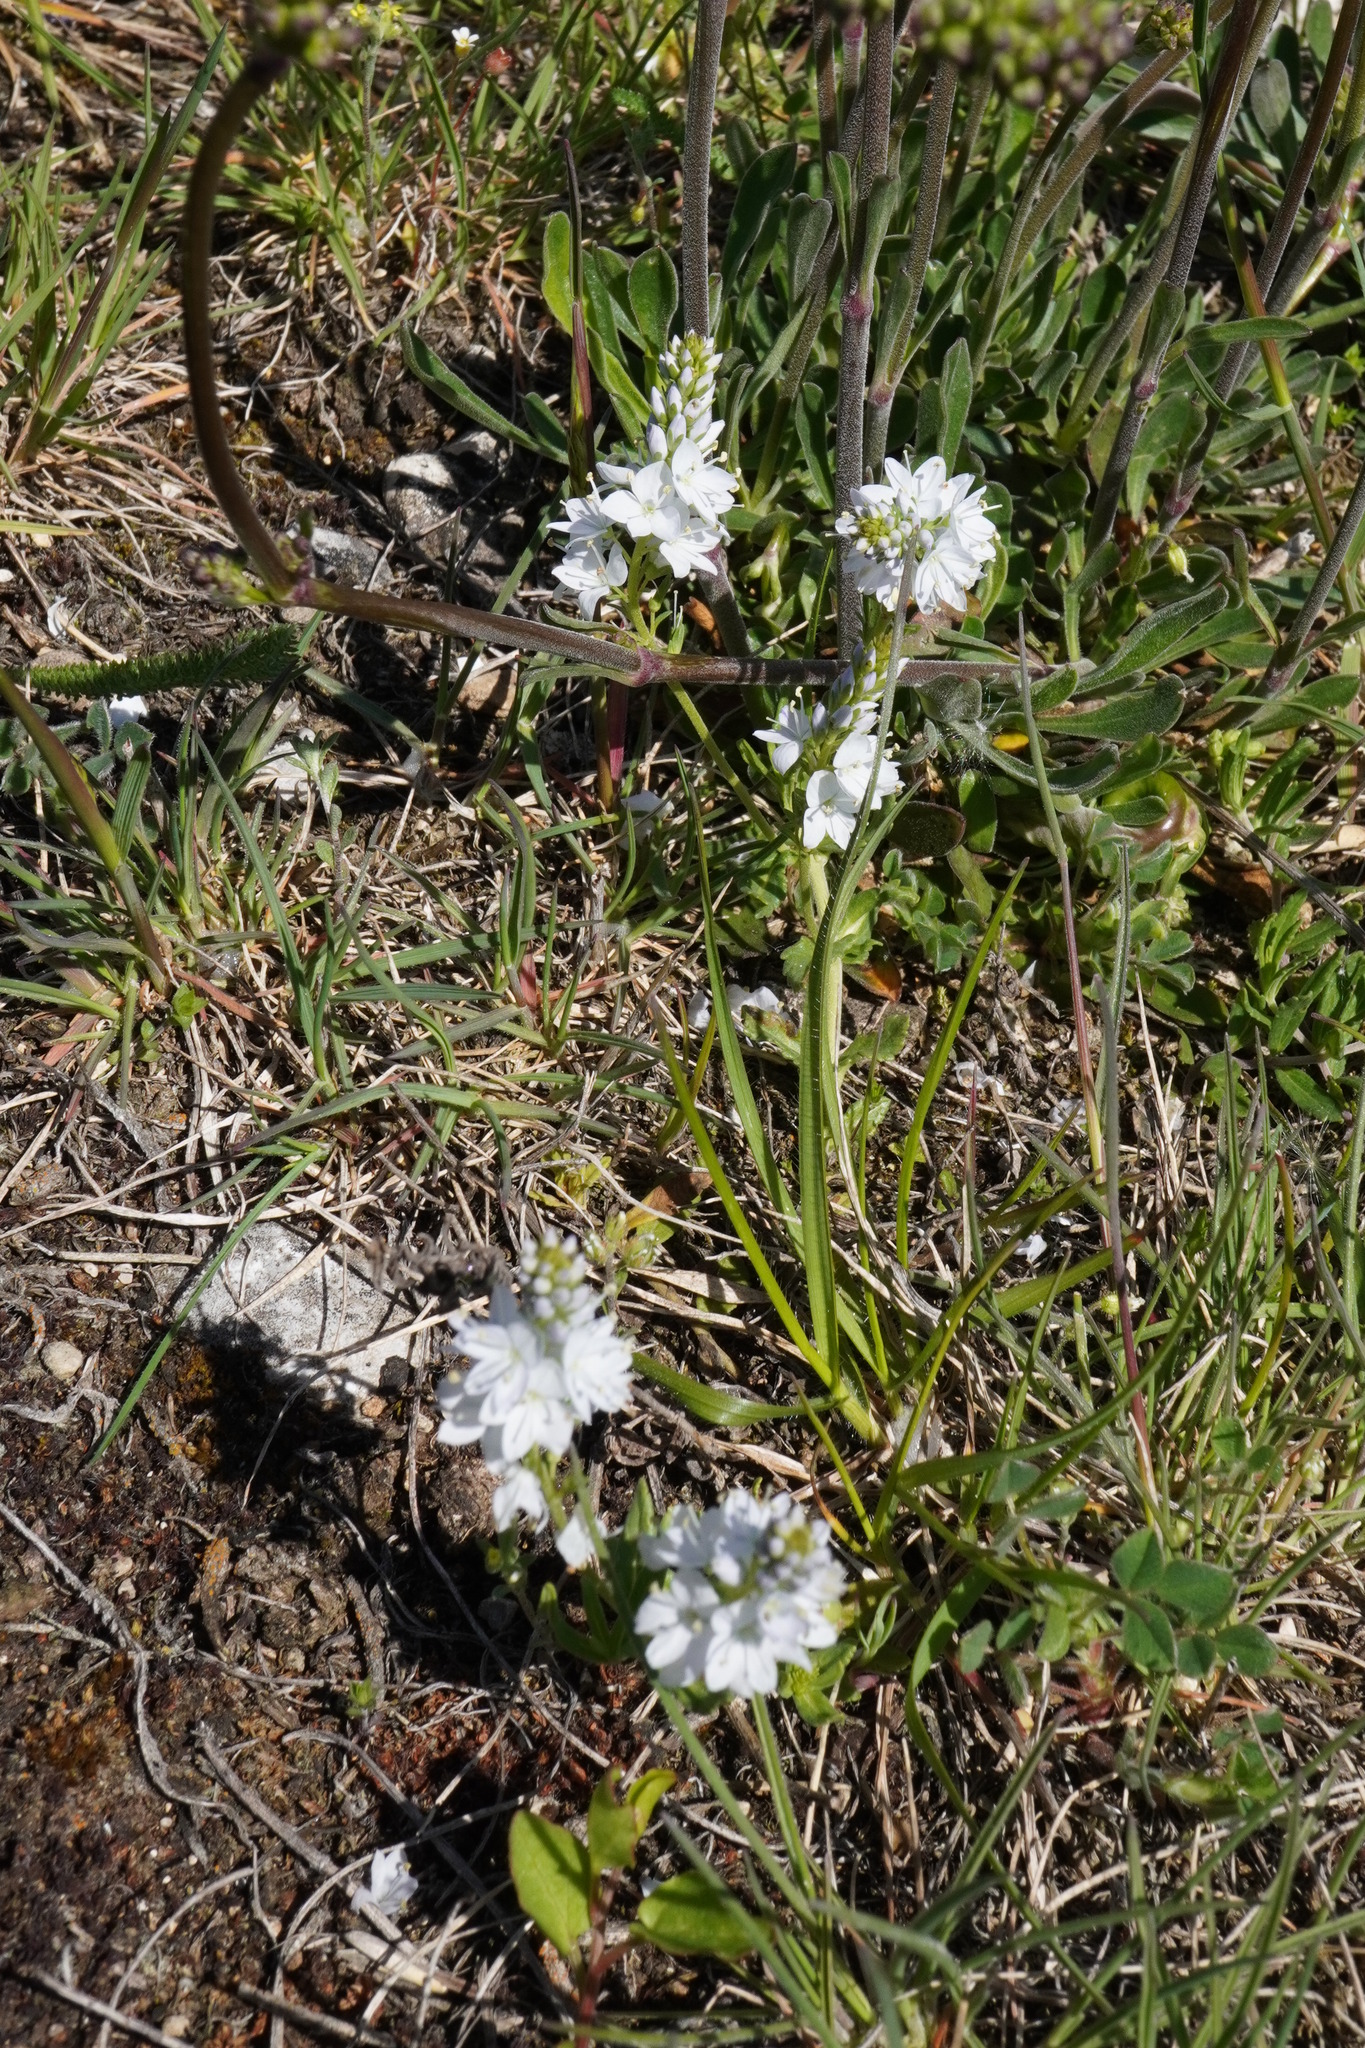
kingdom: Plantae
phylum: Tracheophyta
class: Magnoliopsida
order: Lamiales
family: Plantaginaceae
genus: Veronica
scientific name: Veronica prostrata
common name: Prostrate speedwell
